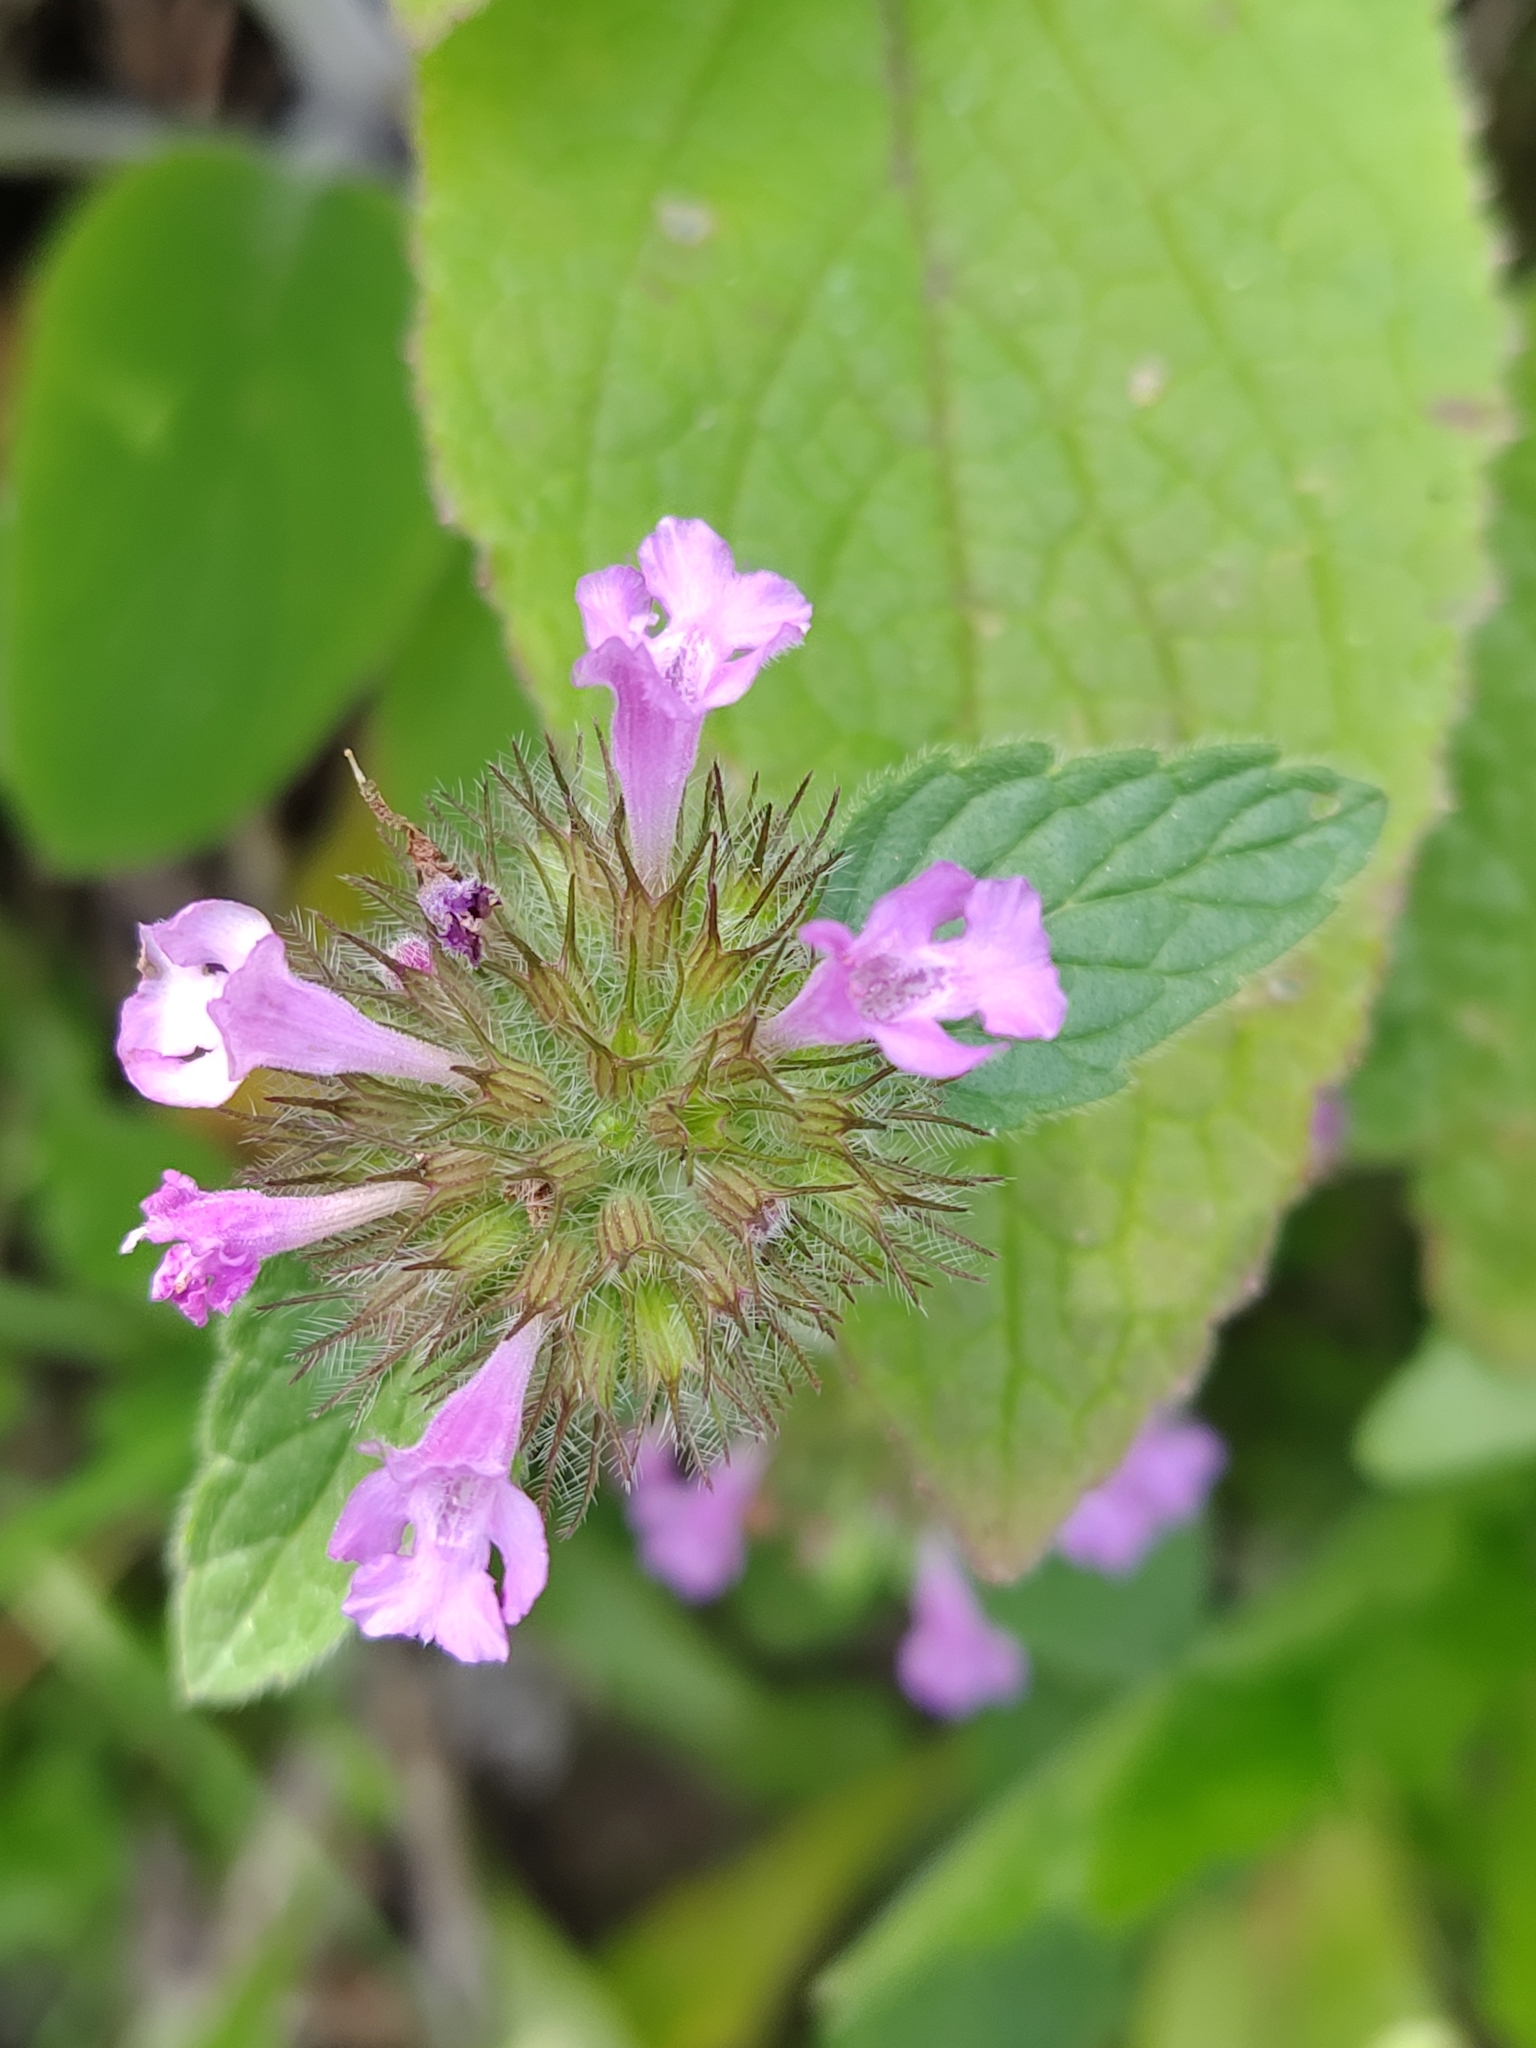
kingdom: Plantae
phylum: Tracheophyta
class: Magnoliopsida
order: Lamiales
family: Lamiaceae
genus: Clinopodium
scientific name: Clinopodium vulgare
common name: Wild basil
